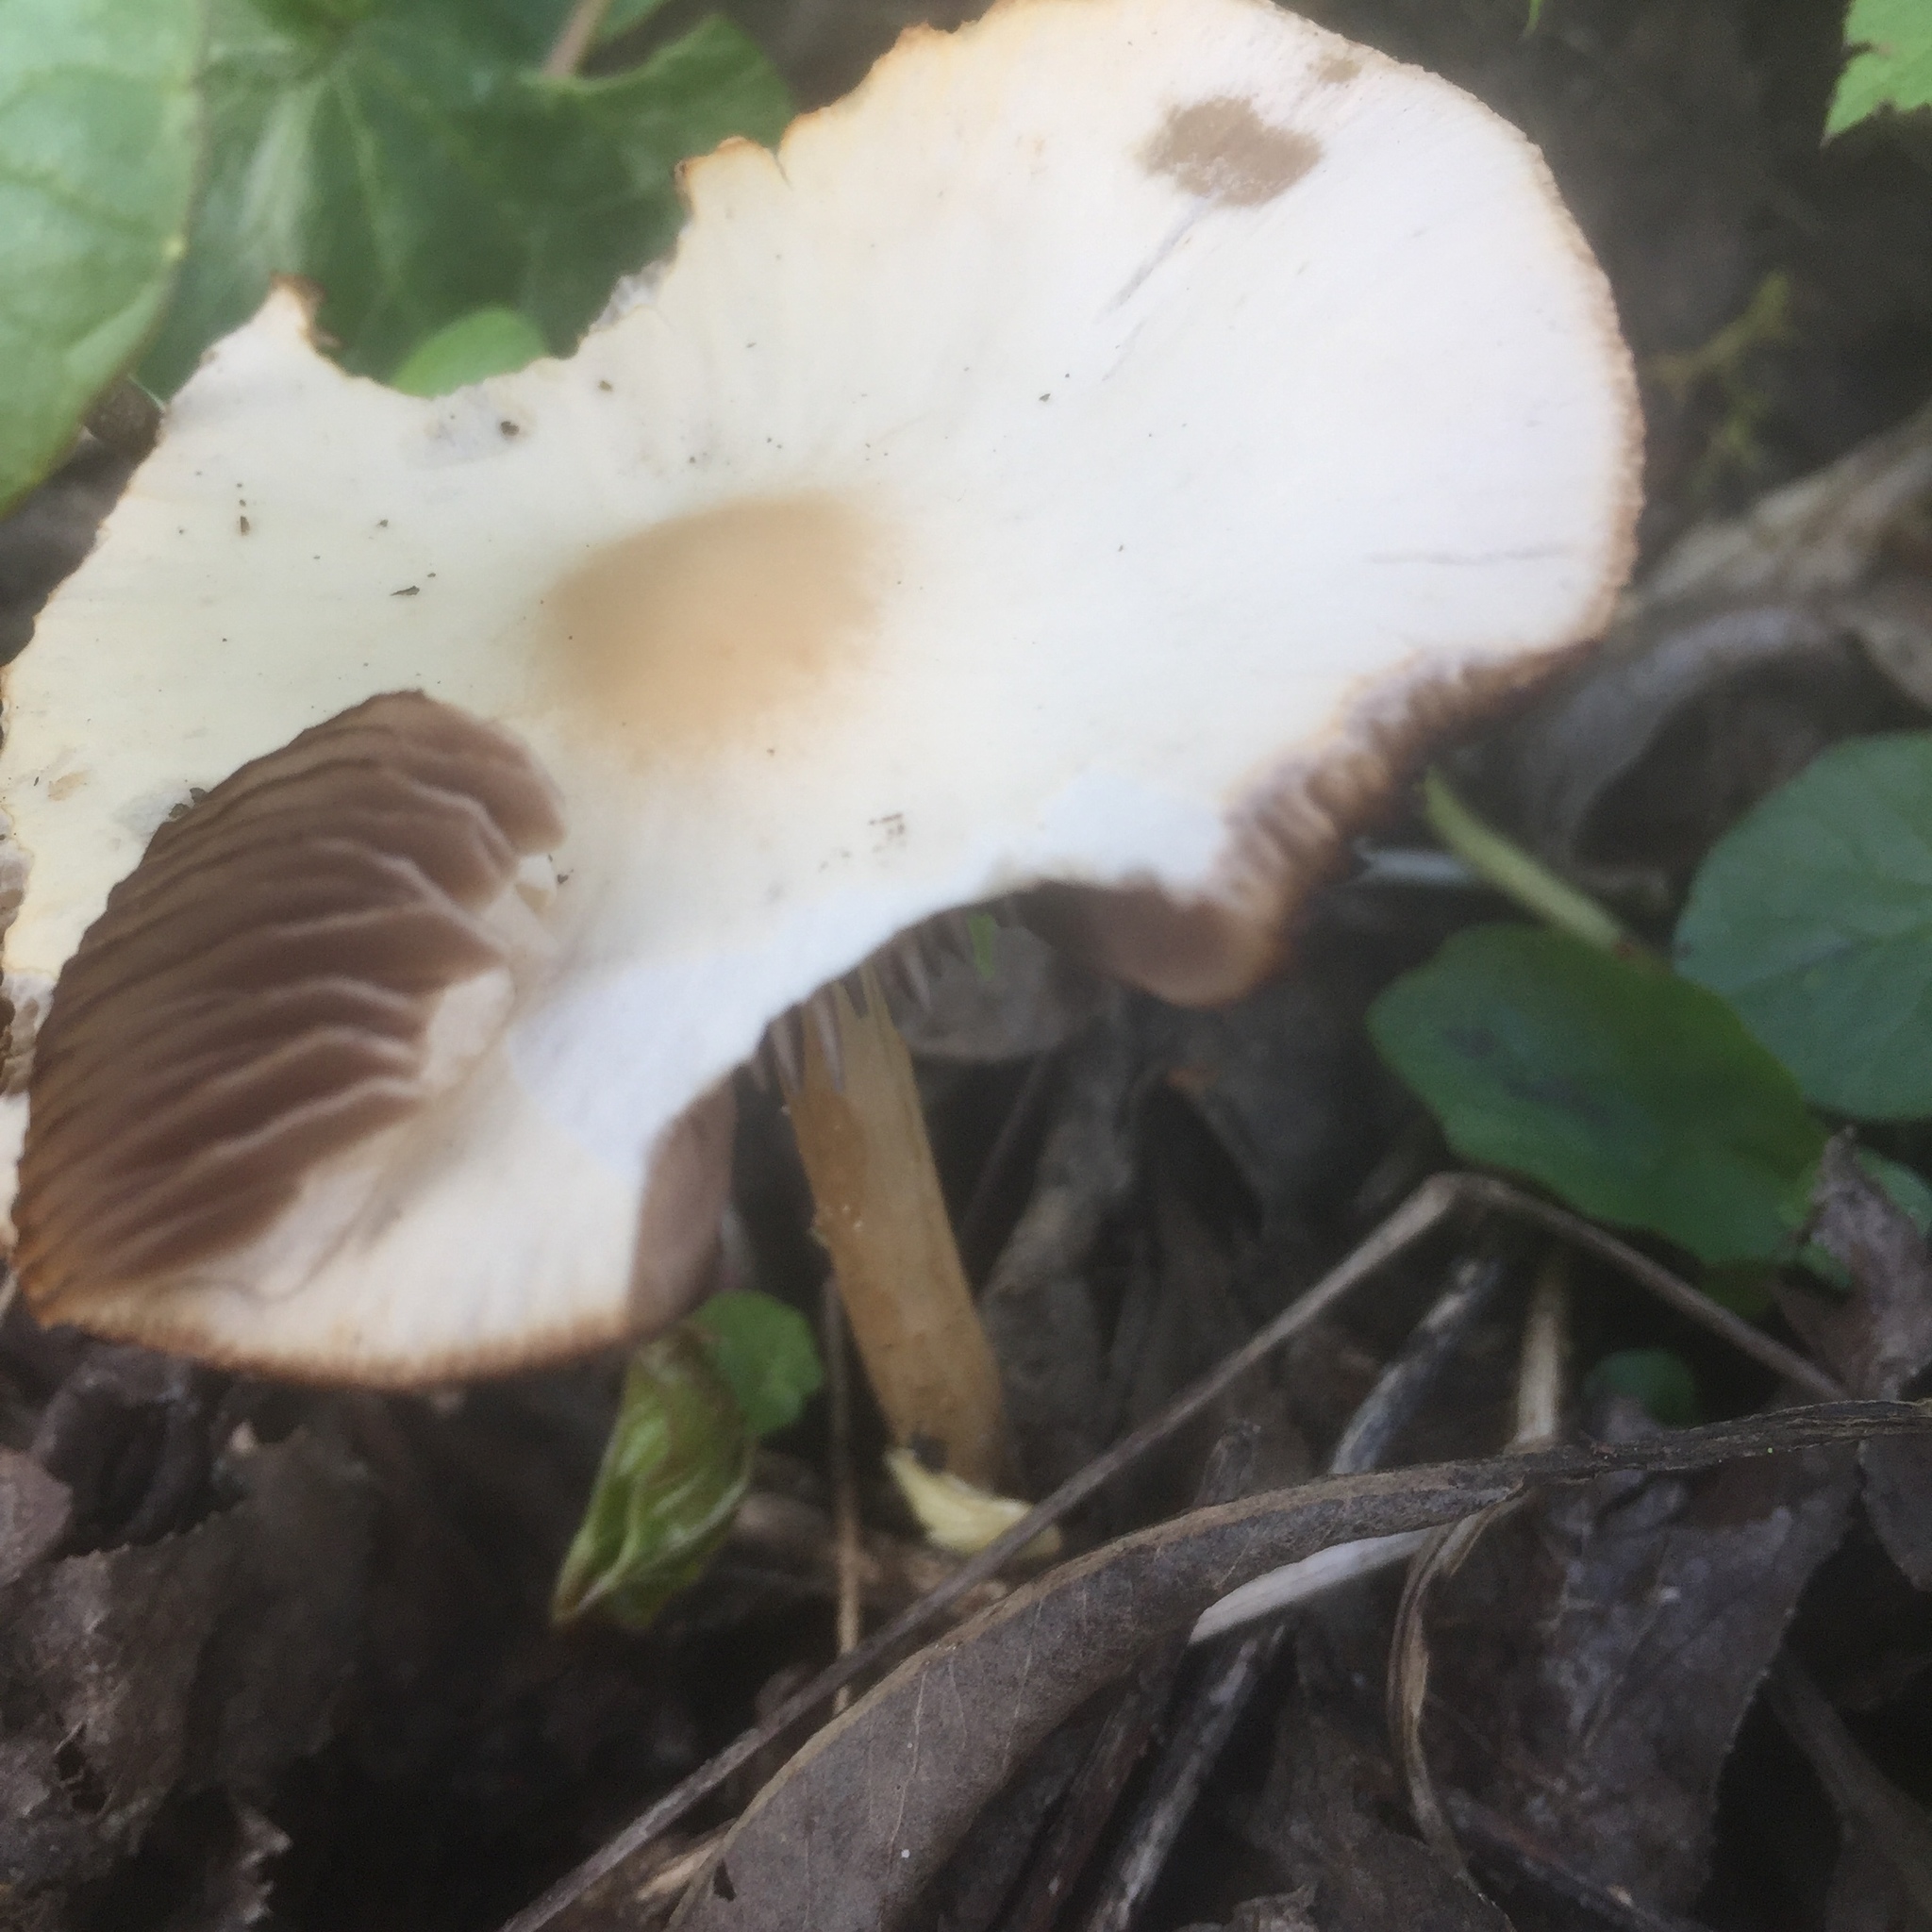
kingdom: Fungi
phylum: Basidiomycota
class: Agaricomycetes
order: Agaricales
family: Psathyrellaceae
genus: Candolleomyces
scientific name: Candolleomyces candolleanus
